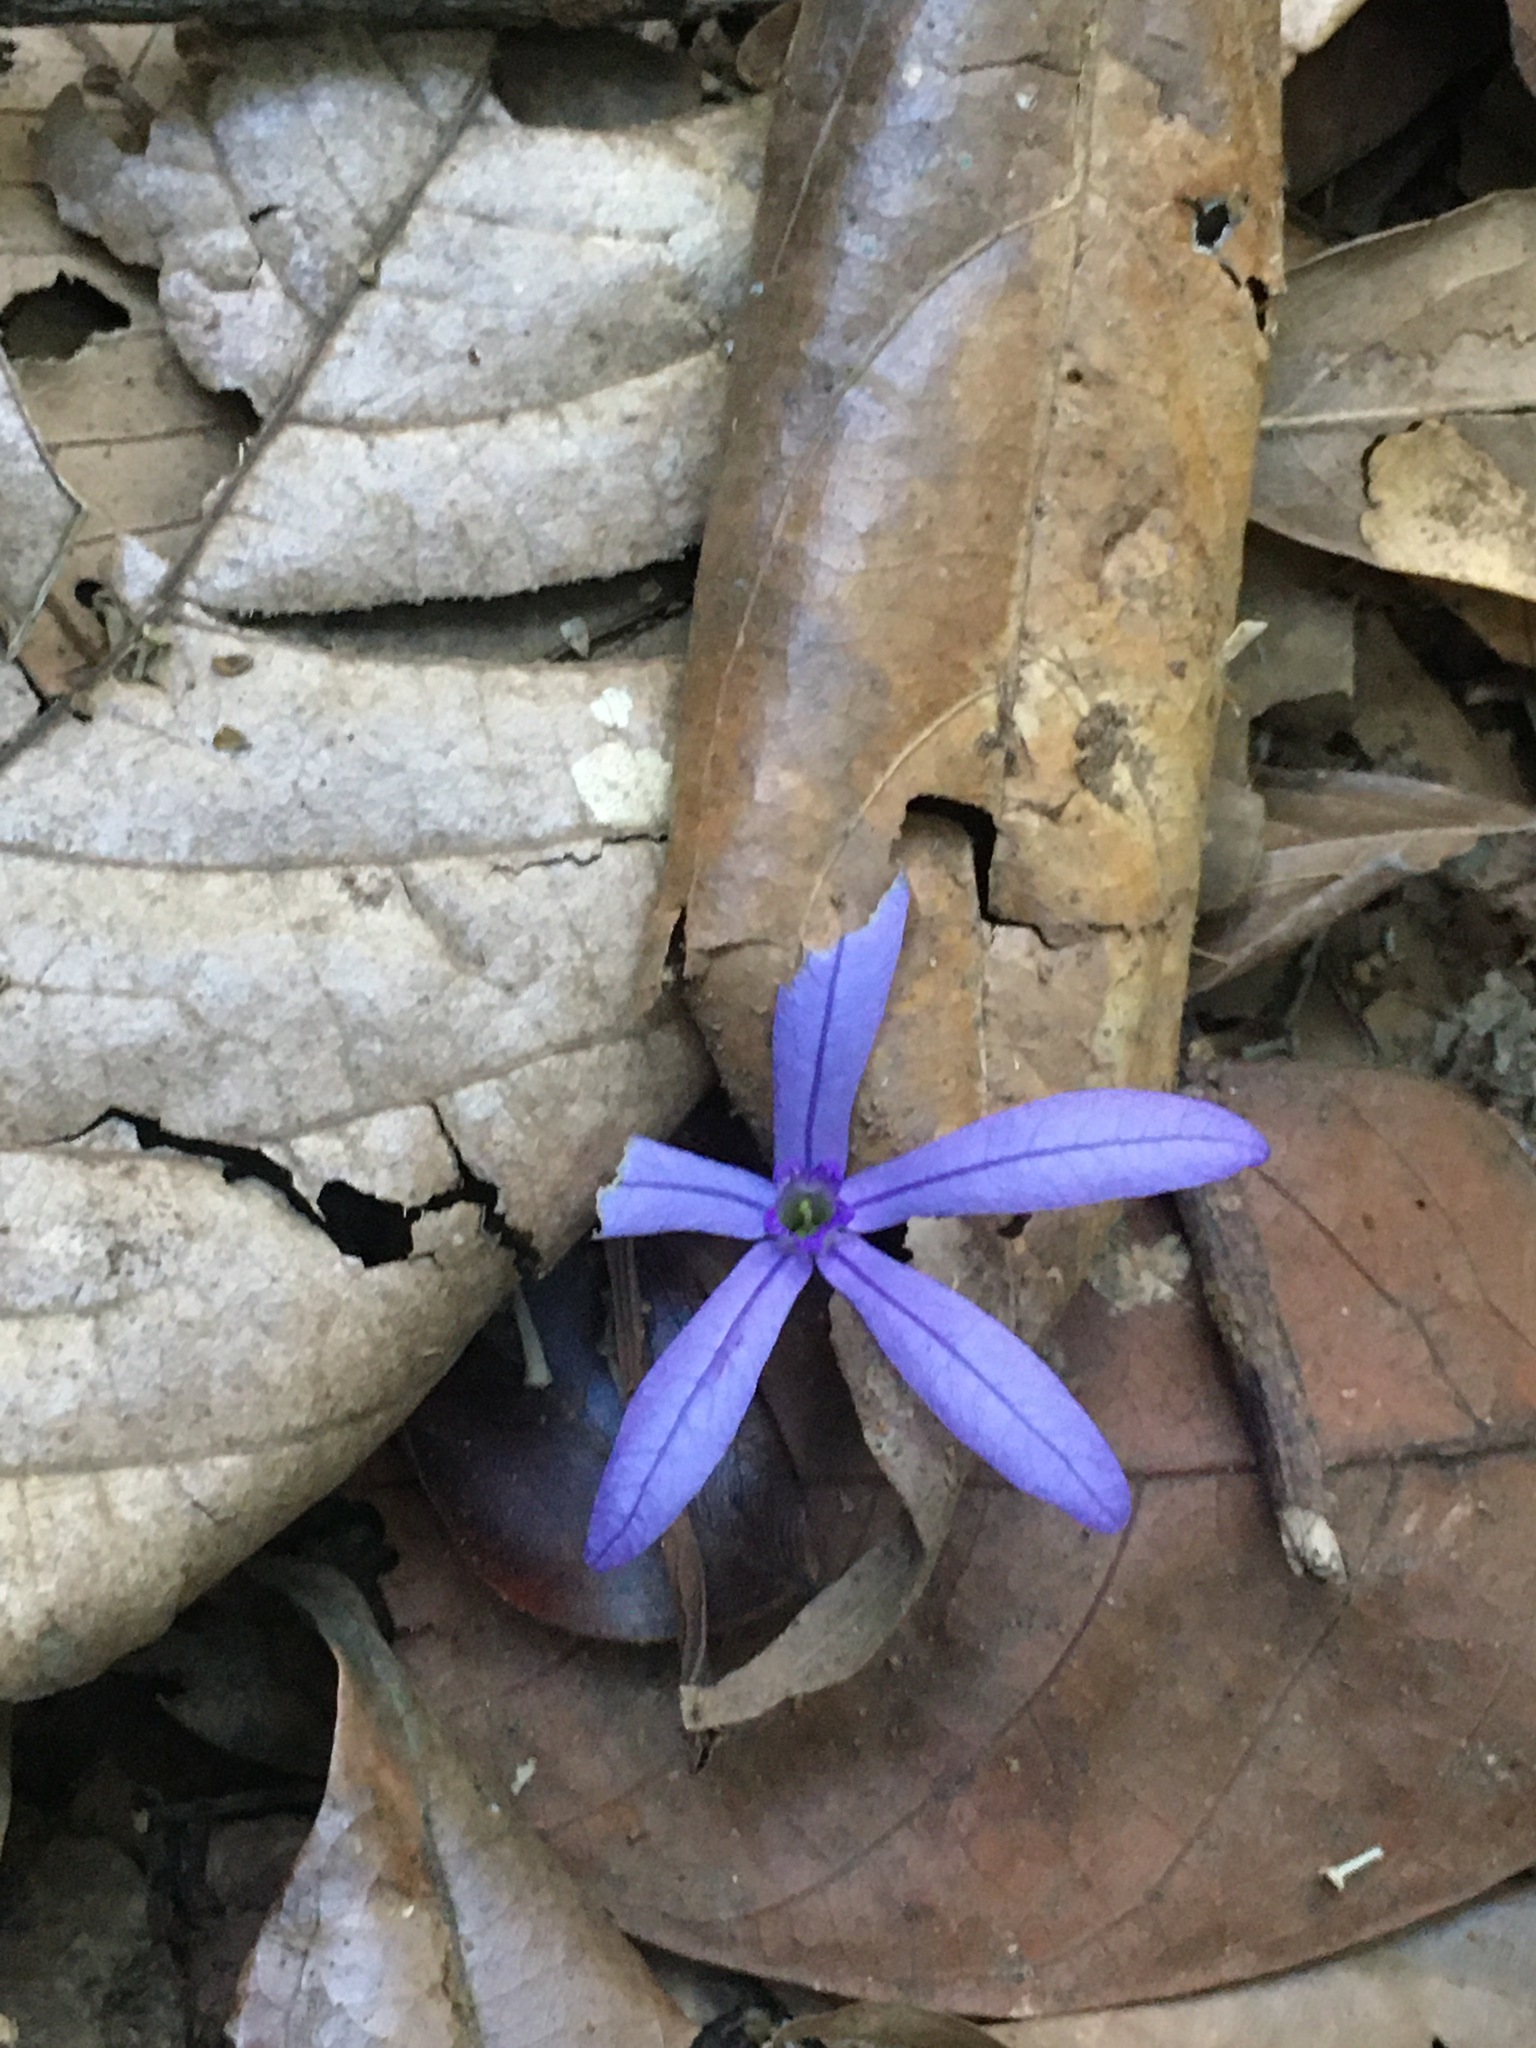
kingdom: Plantae
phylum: Tracheophyta
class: Magnoliopsida
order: Lamiales
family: Verbenaceae
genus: Petrea
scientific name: Petrea volubilis
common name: Queen's-wreath
